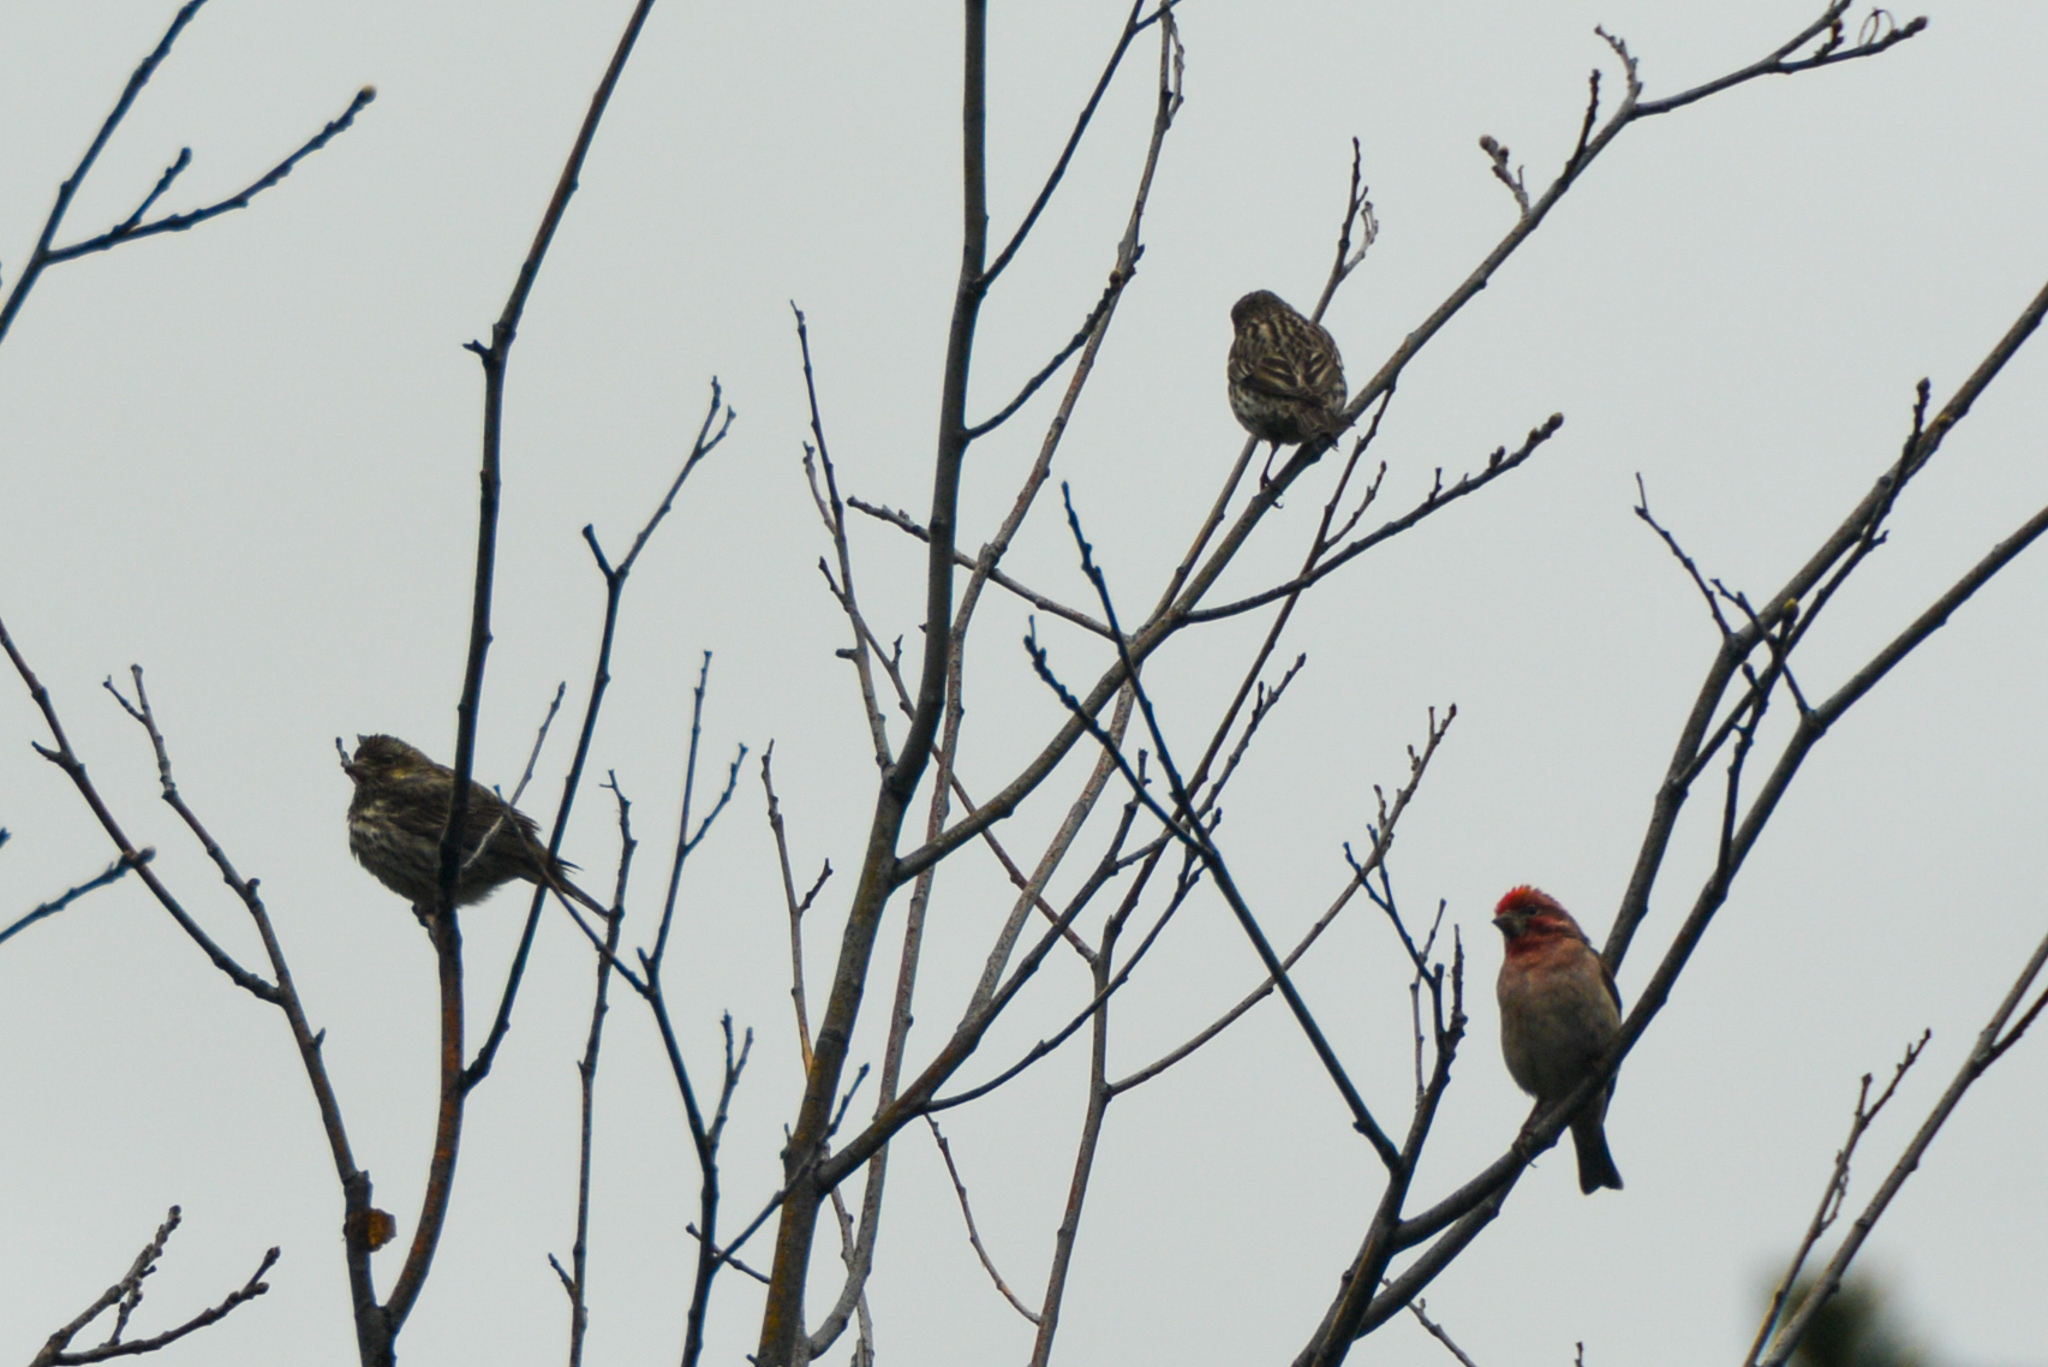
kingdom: Animalia
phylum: Chordata
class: Aves
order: Passeriformes
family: Fringillidae
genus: Haemorhous
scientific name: Haemorhous cassinii
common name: Cassin's finch
